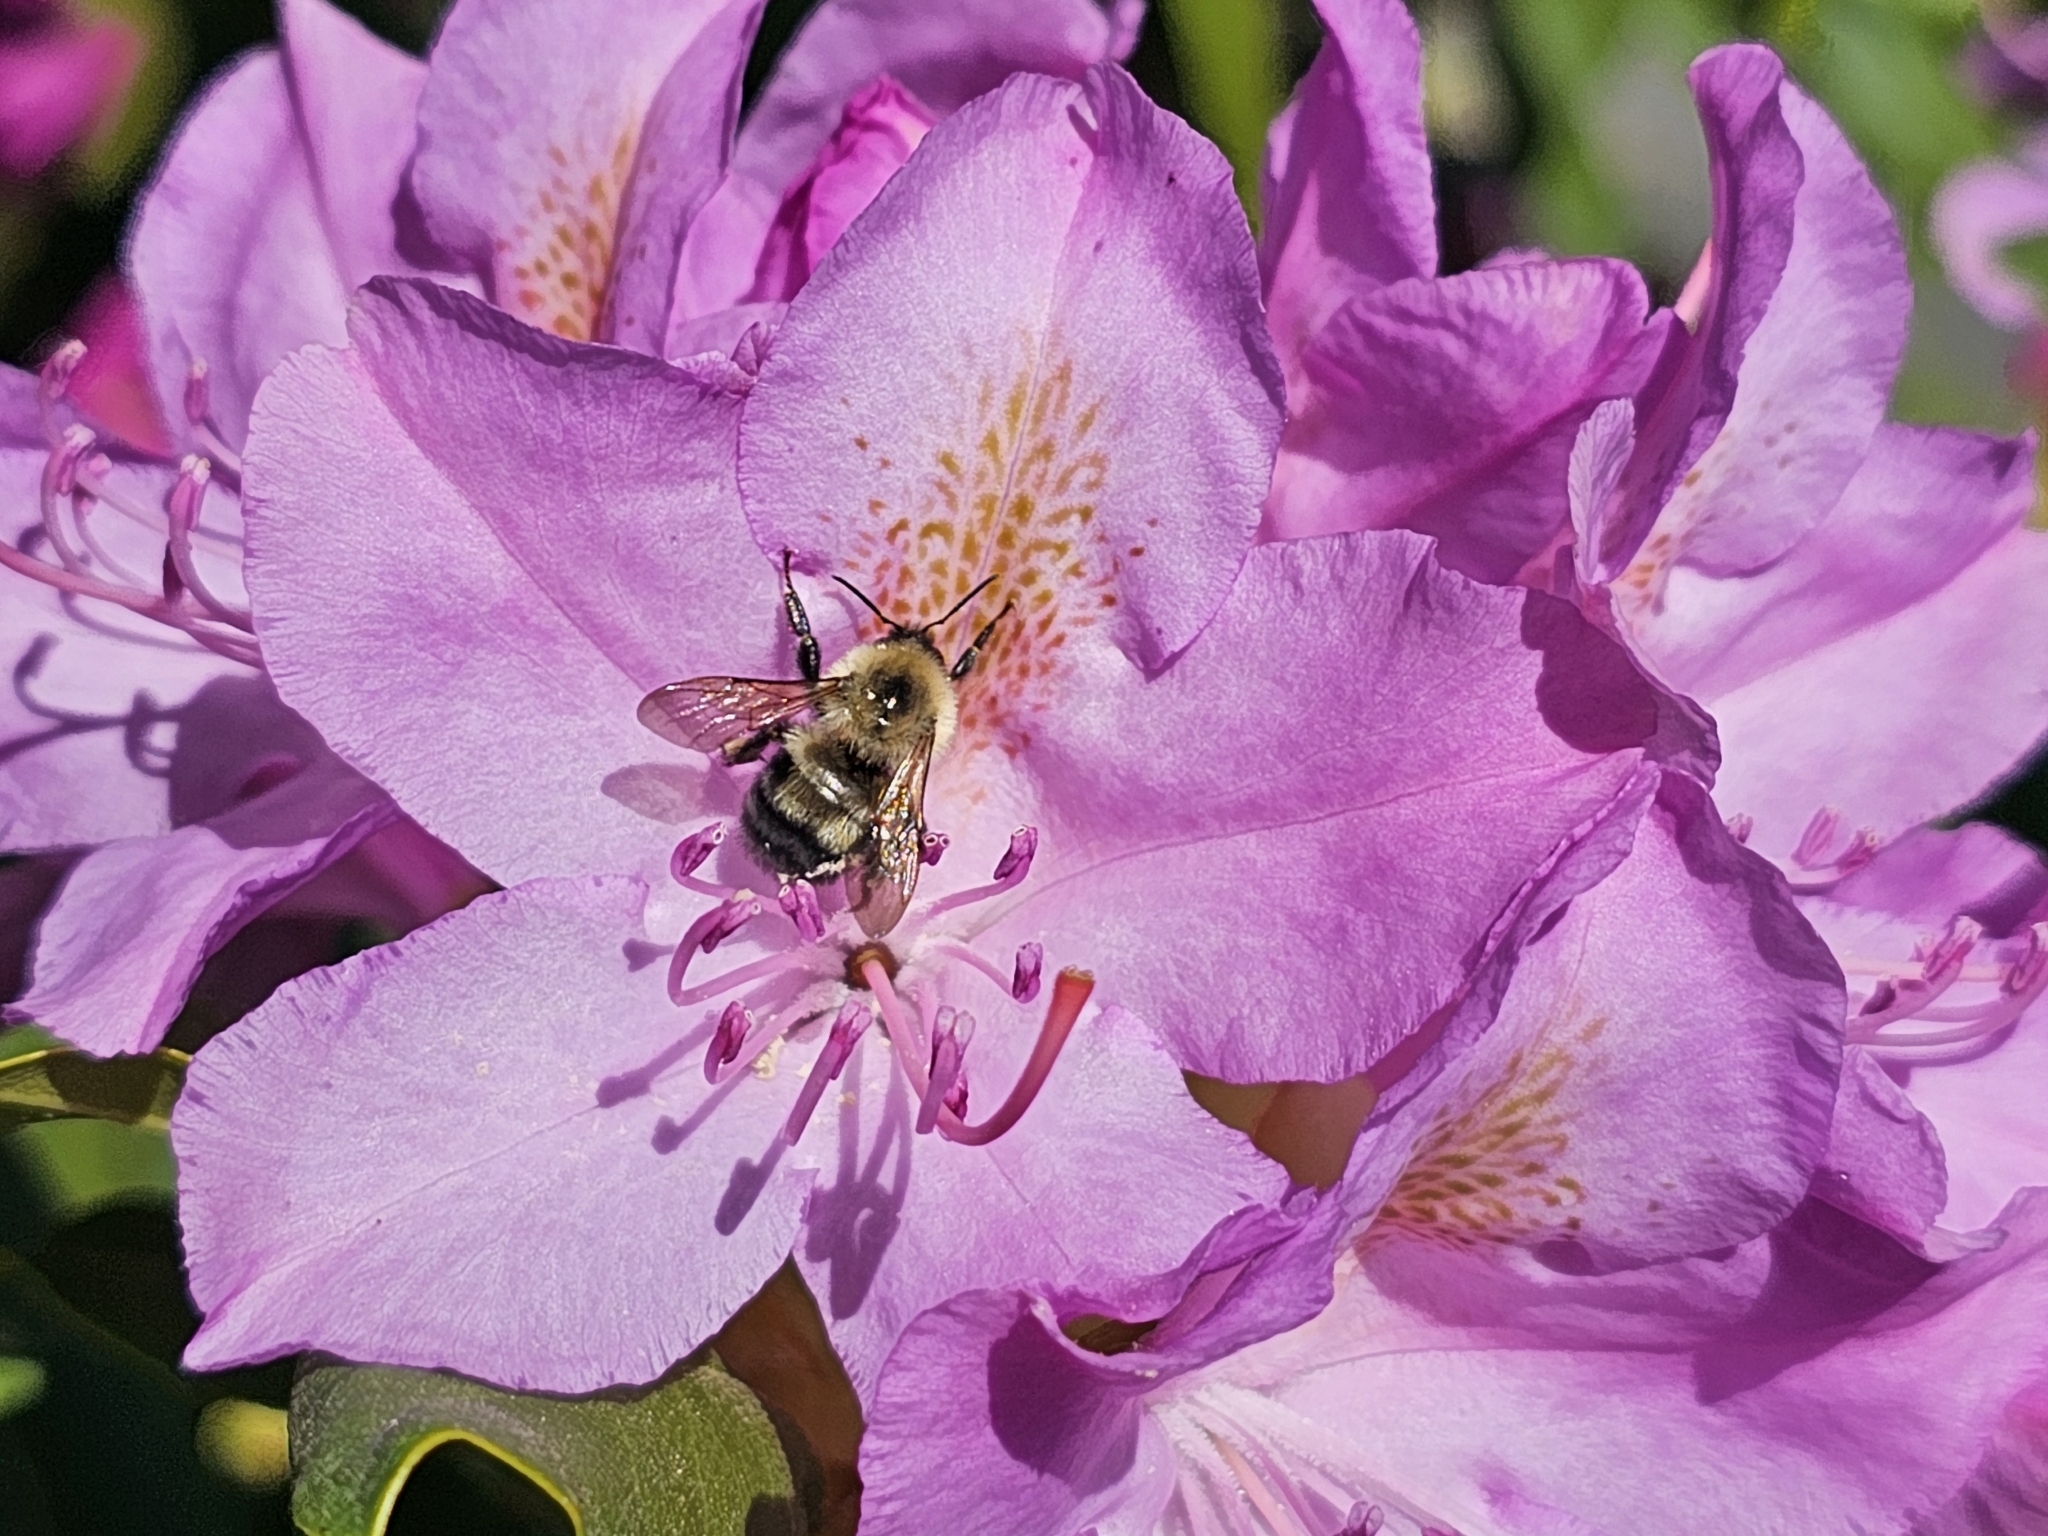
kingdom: Animalia
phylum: Arthropoda
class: Insecta
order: Hymenoptera
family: Apidae
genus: Bombus
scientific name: Bombus bimaculatus
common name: Two-spotted bumble bee
